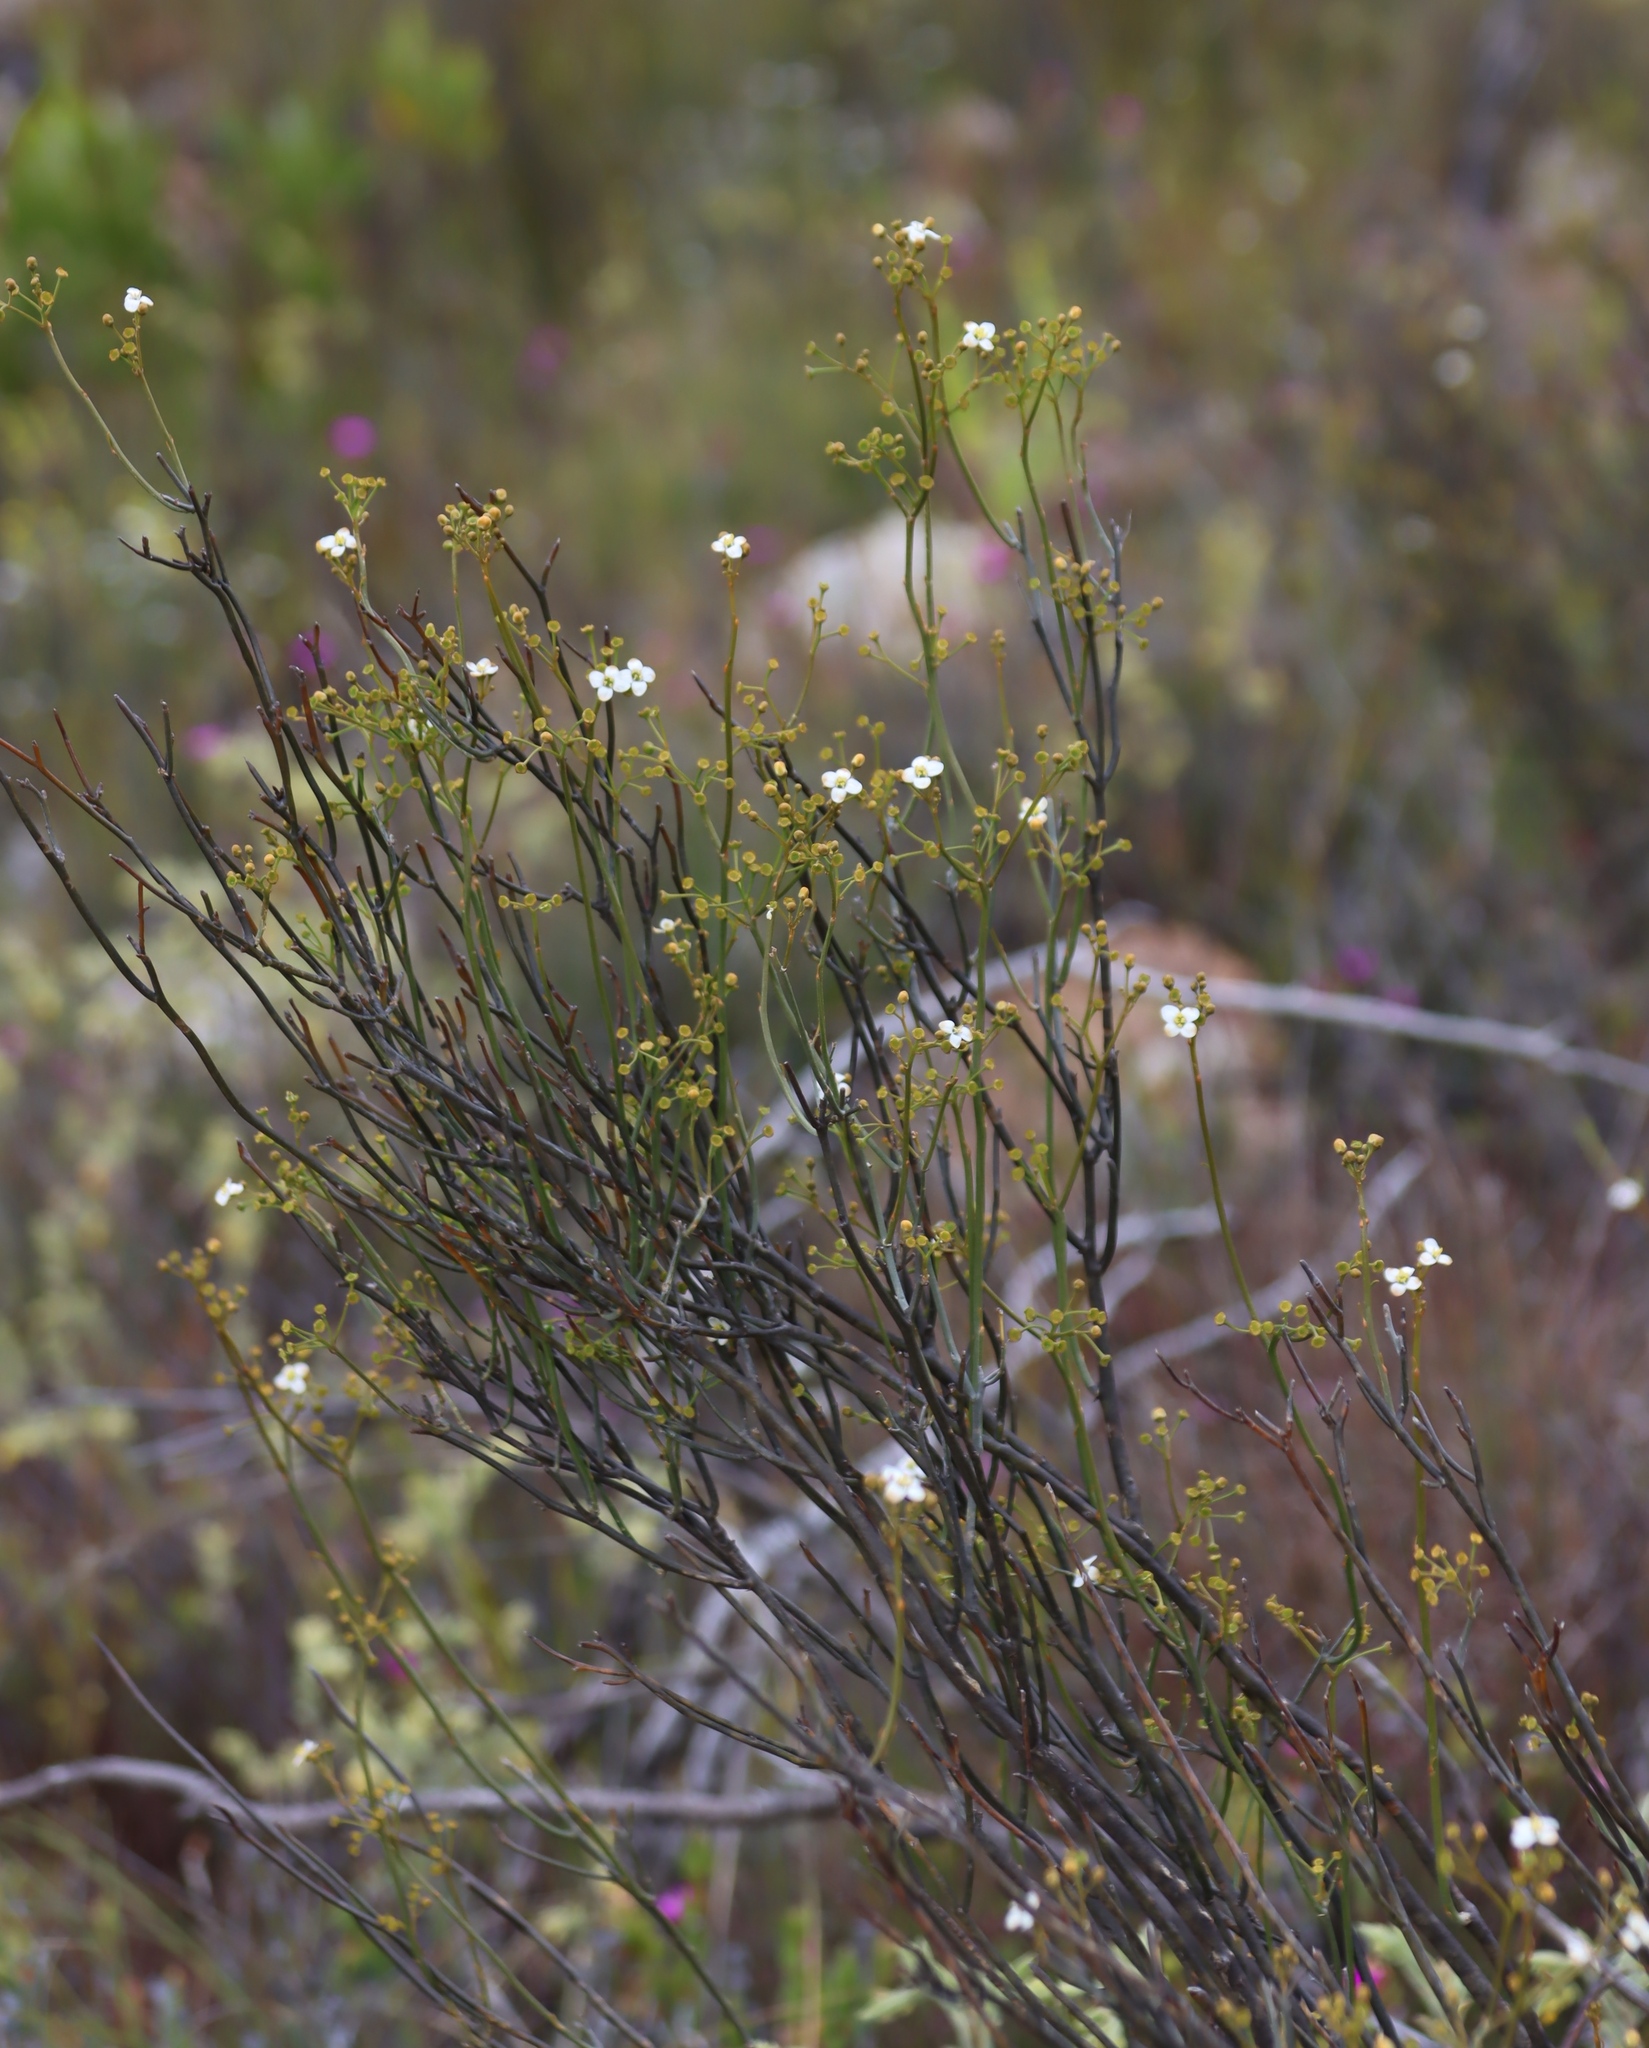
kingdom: Plantae
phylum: Tracheophyta
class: Magnoliopsida
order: Solanales
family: Montiniaceae
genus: Montinia
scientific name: Montinia caryophyllacea
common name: Wild clove-bush
